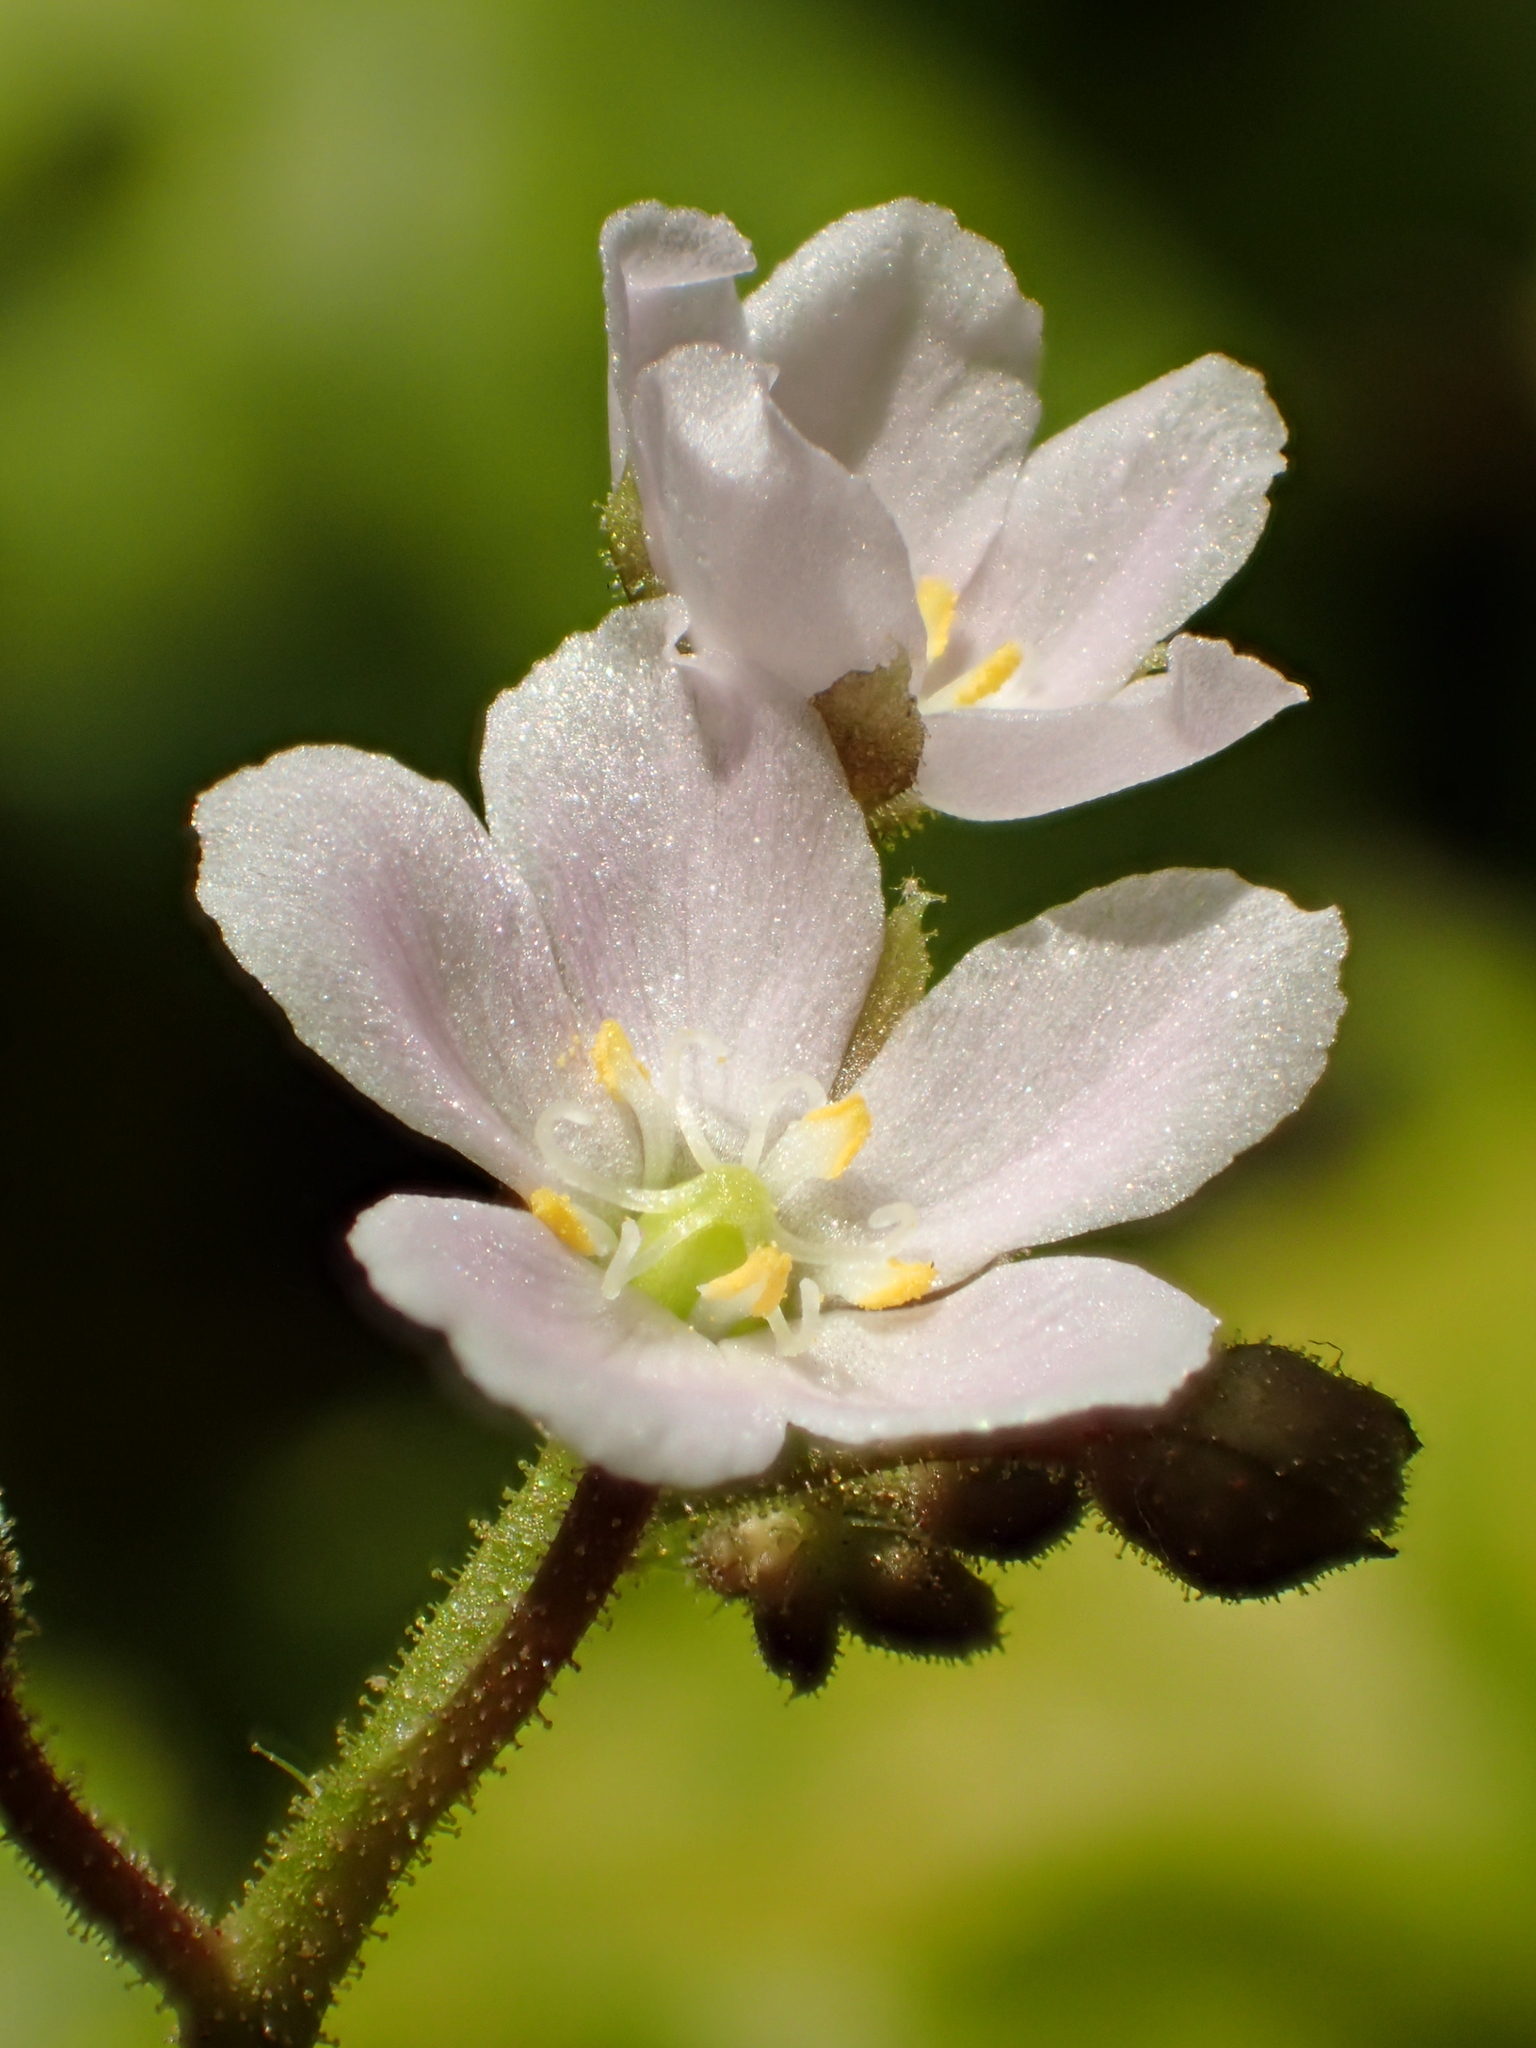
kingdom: Plantae
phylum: Tracheophyta
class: Magnoliopsida
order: Caryophyllales
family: Droseraceae
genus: Drosera
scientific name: Drosera finlaysoniana
